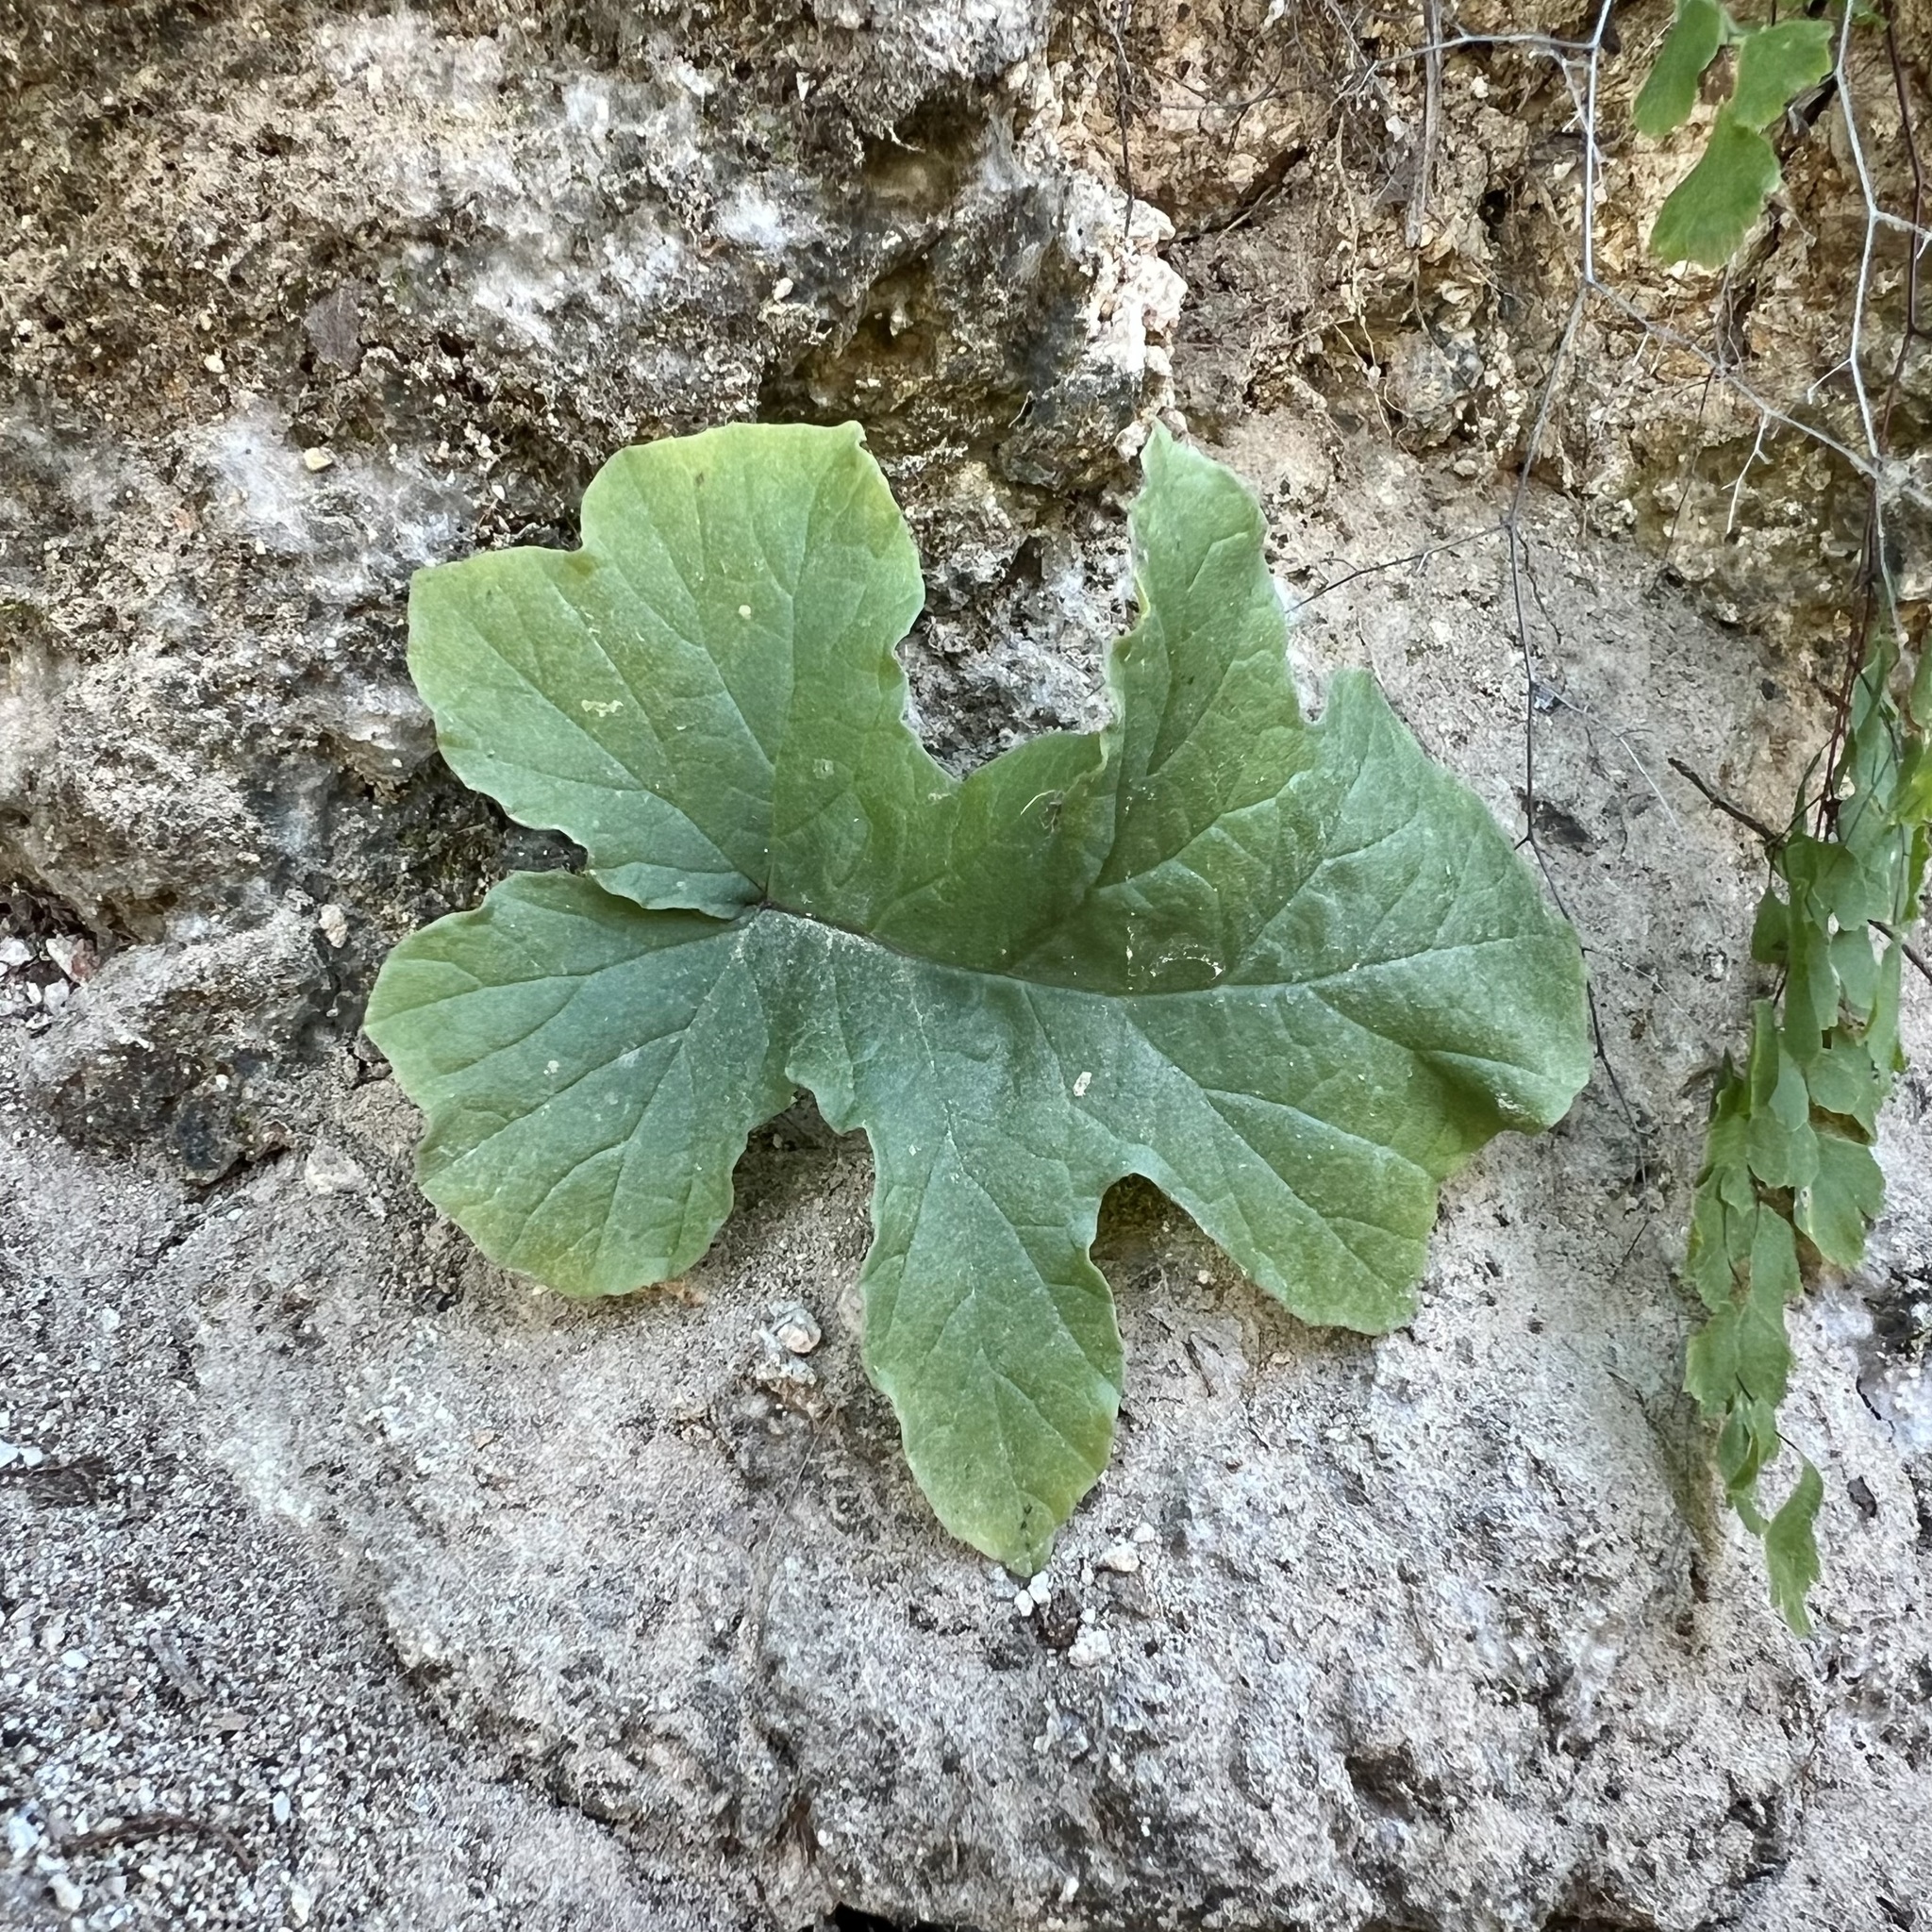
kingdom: Plantae
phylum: Tracheophyta
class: Magnoliopsida
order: Rosales
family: Moraceae
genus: Dorstenia
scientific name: Dorstenia drakena
